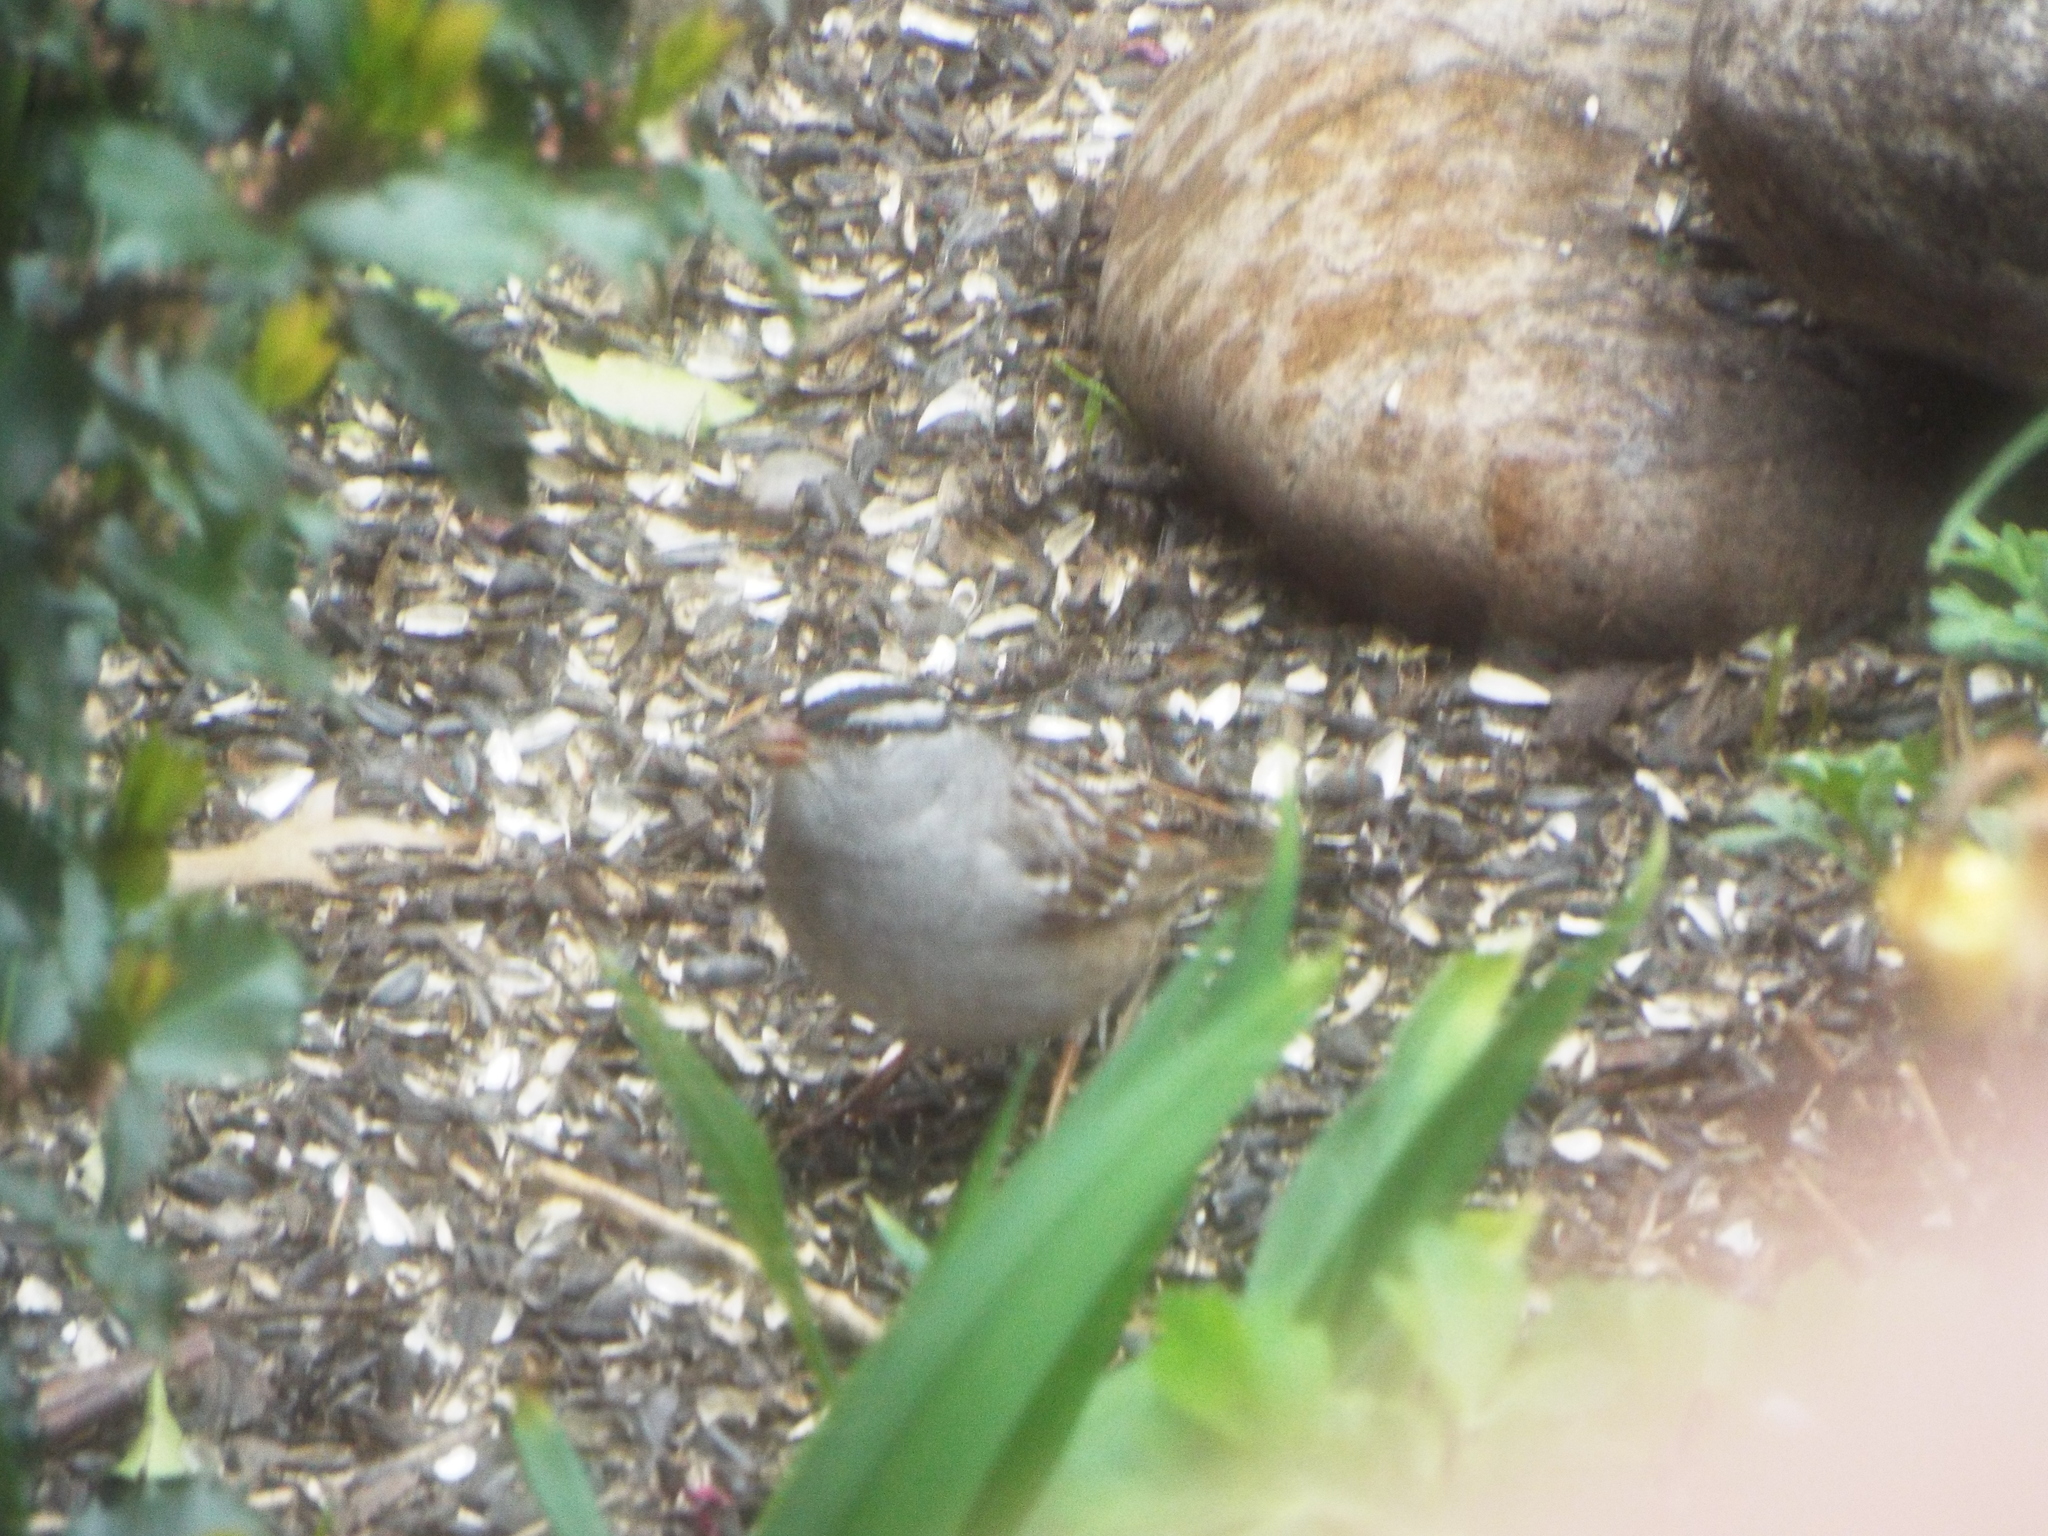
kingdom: Animalia
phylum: Chordata
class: Aves
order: Passeriformes
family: Passerellidae
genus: Zonotrichia
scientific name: Zonotrichia leucophrys
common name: White-crowned sparrow
